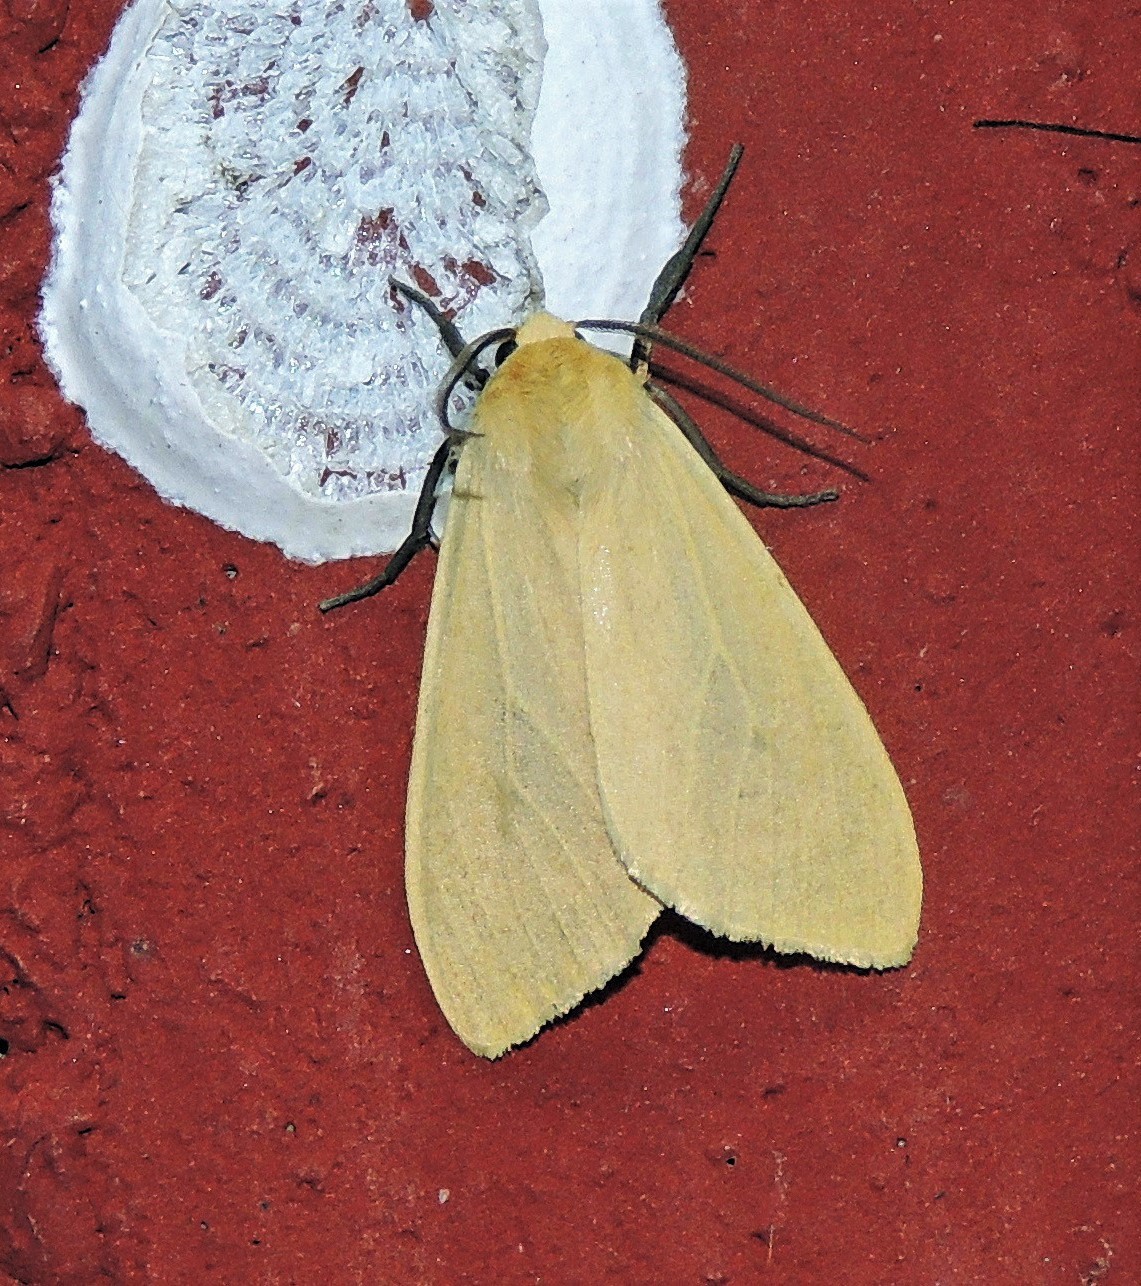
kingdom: Animalia
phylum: Arthropoda
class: Insecta
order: Lepidoptera
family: Erebidae
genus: Pareuchaetes
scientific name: Pareuchaetes aurata
